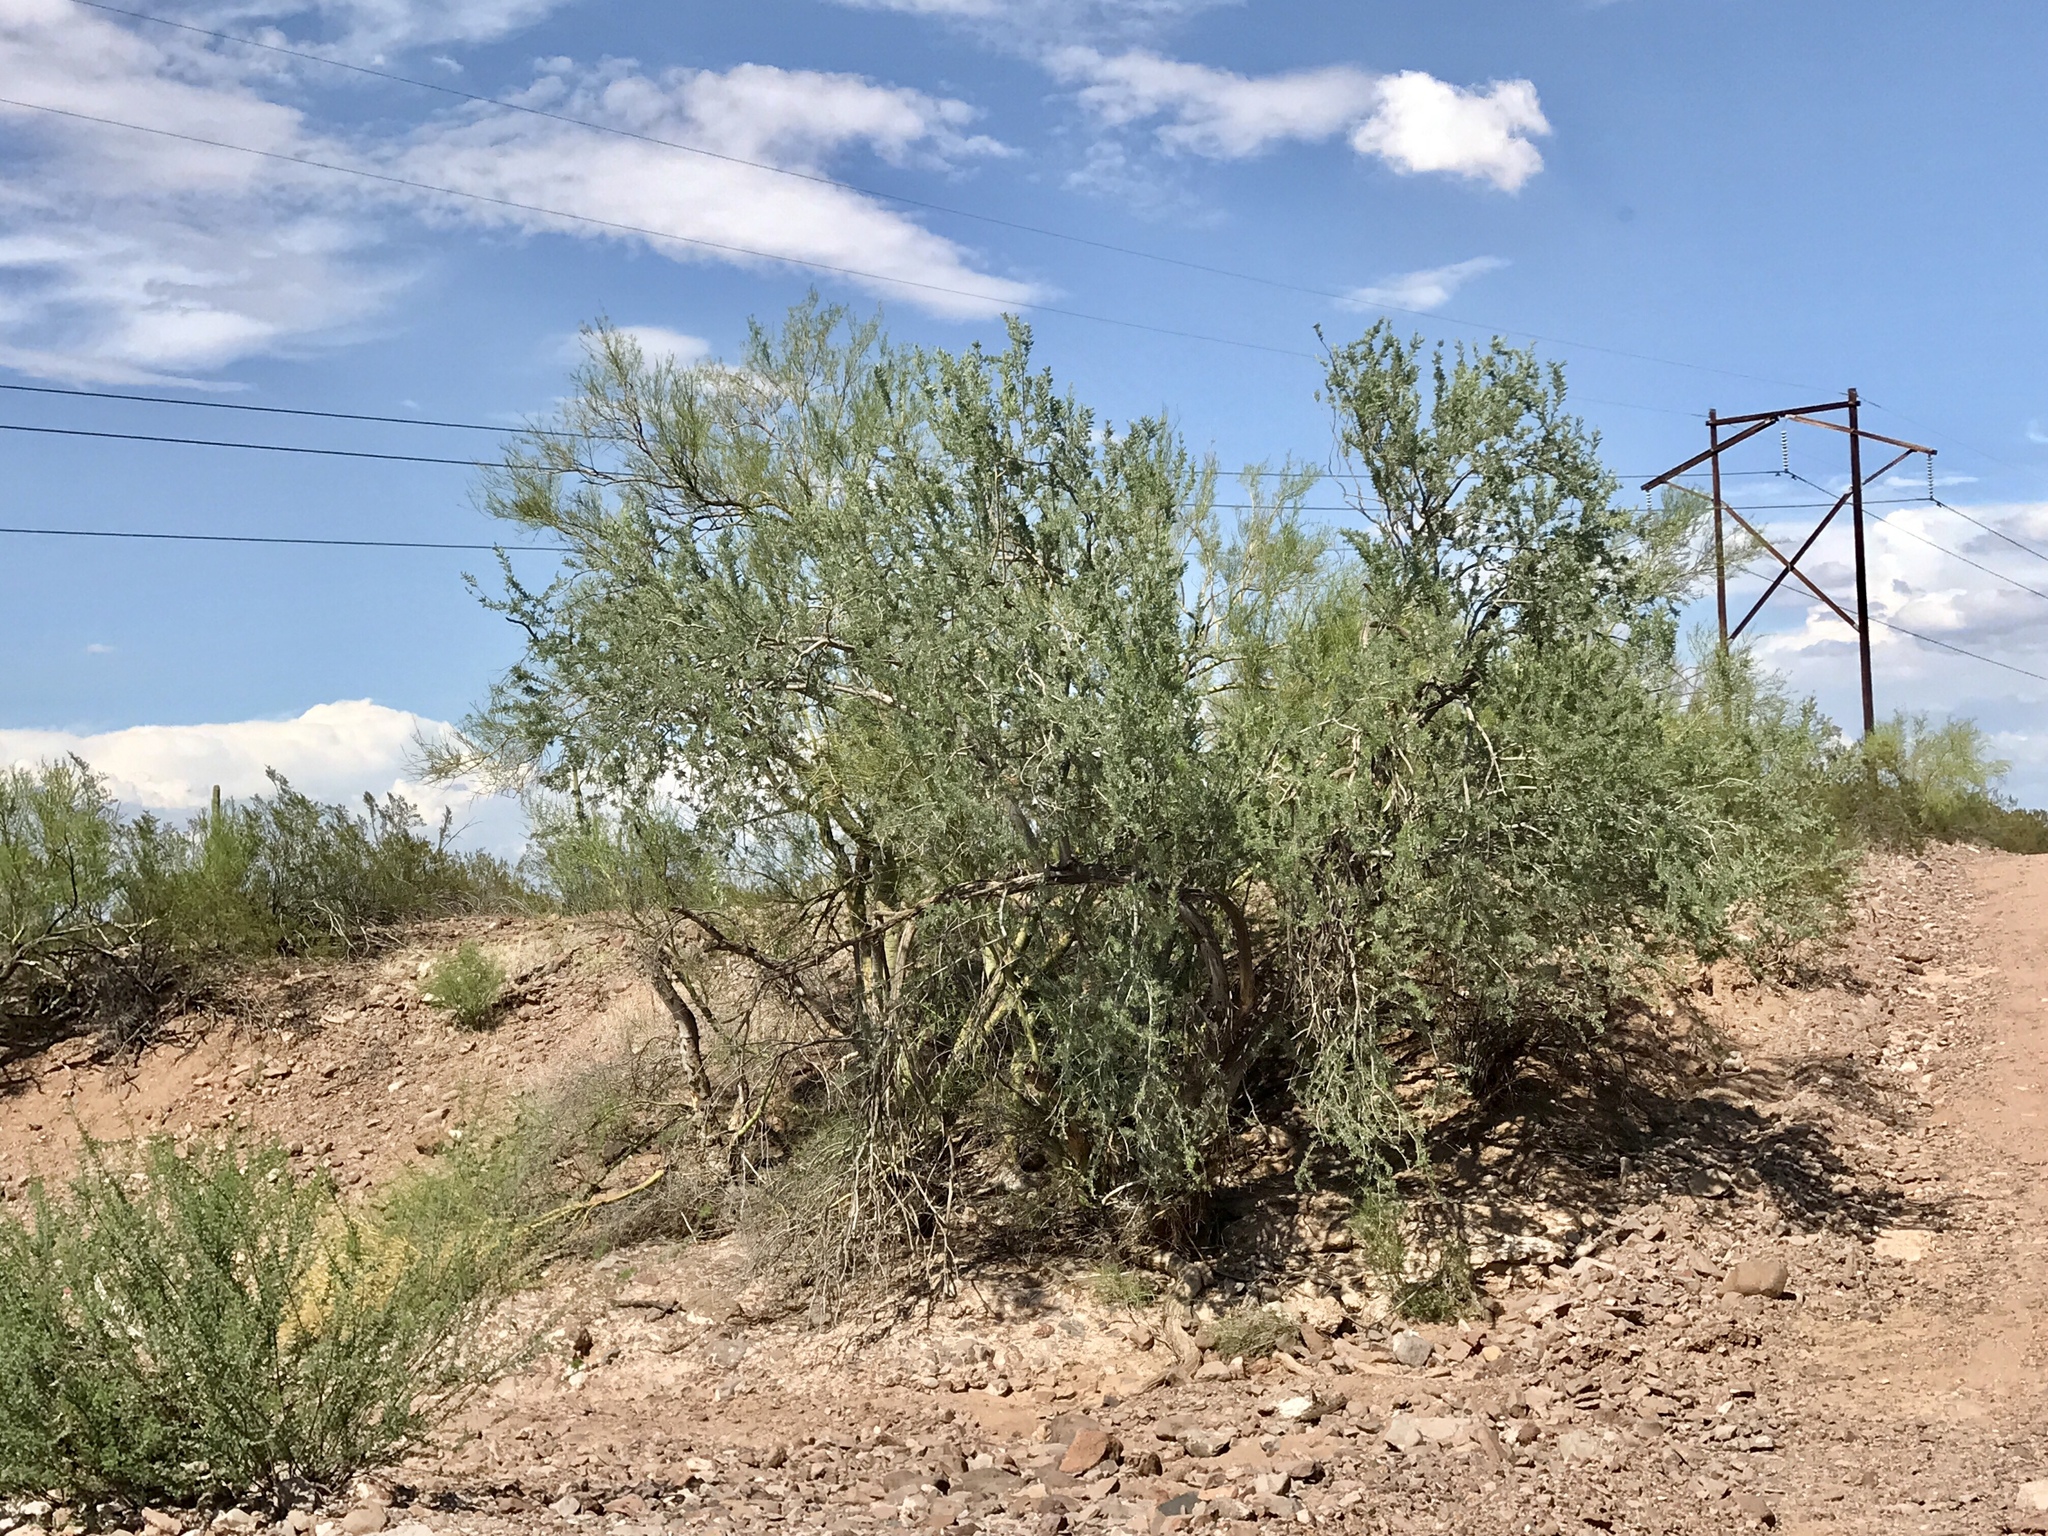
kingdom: Plantae
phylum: Tracheophyta
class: Magnoliopsida
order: Fabales
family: Fabaceae
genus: Olneya
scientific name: Olneya tesota
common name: Desert ironwood
